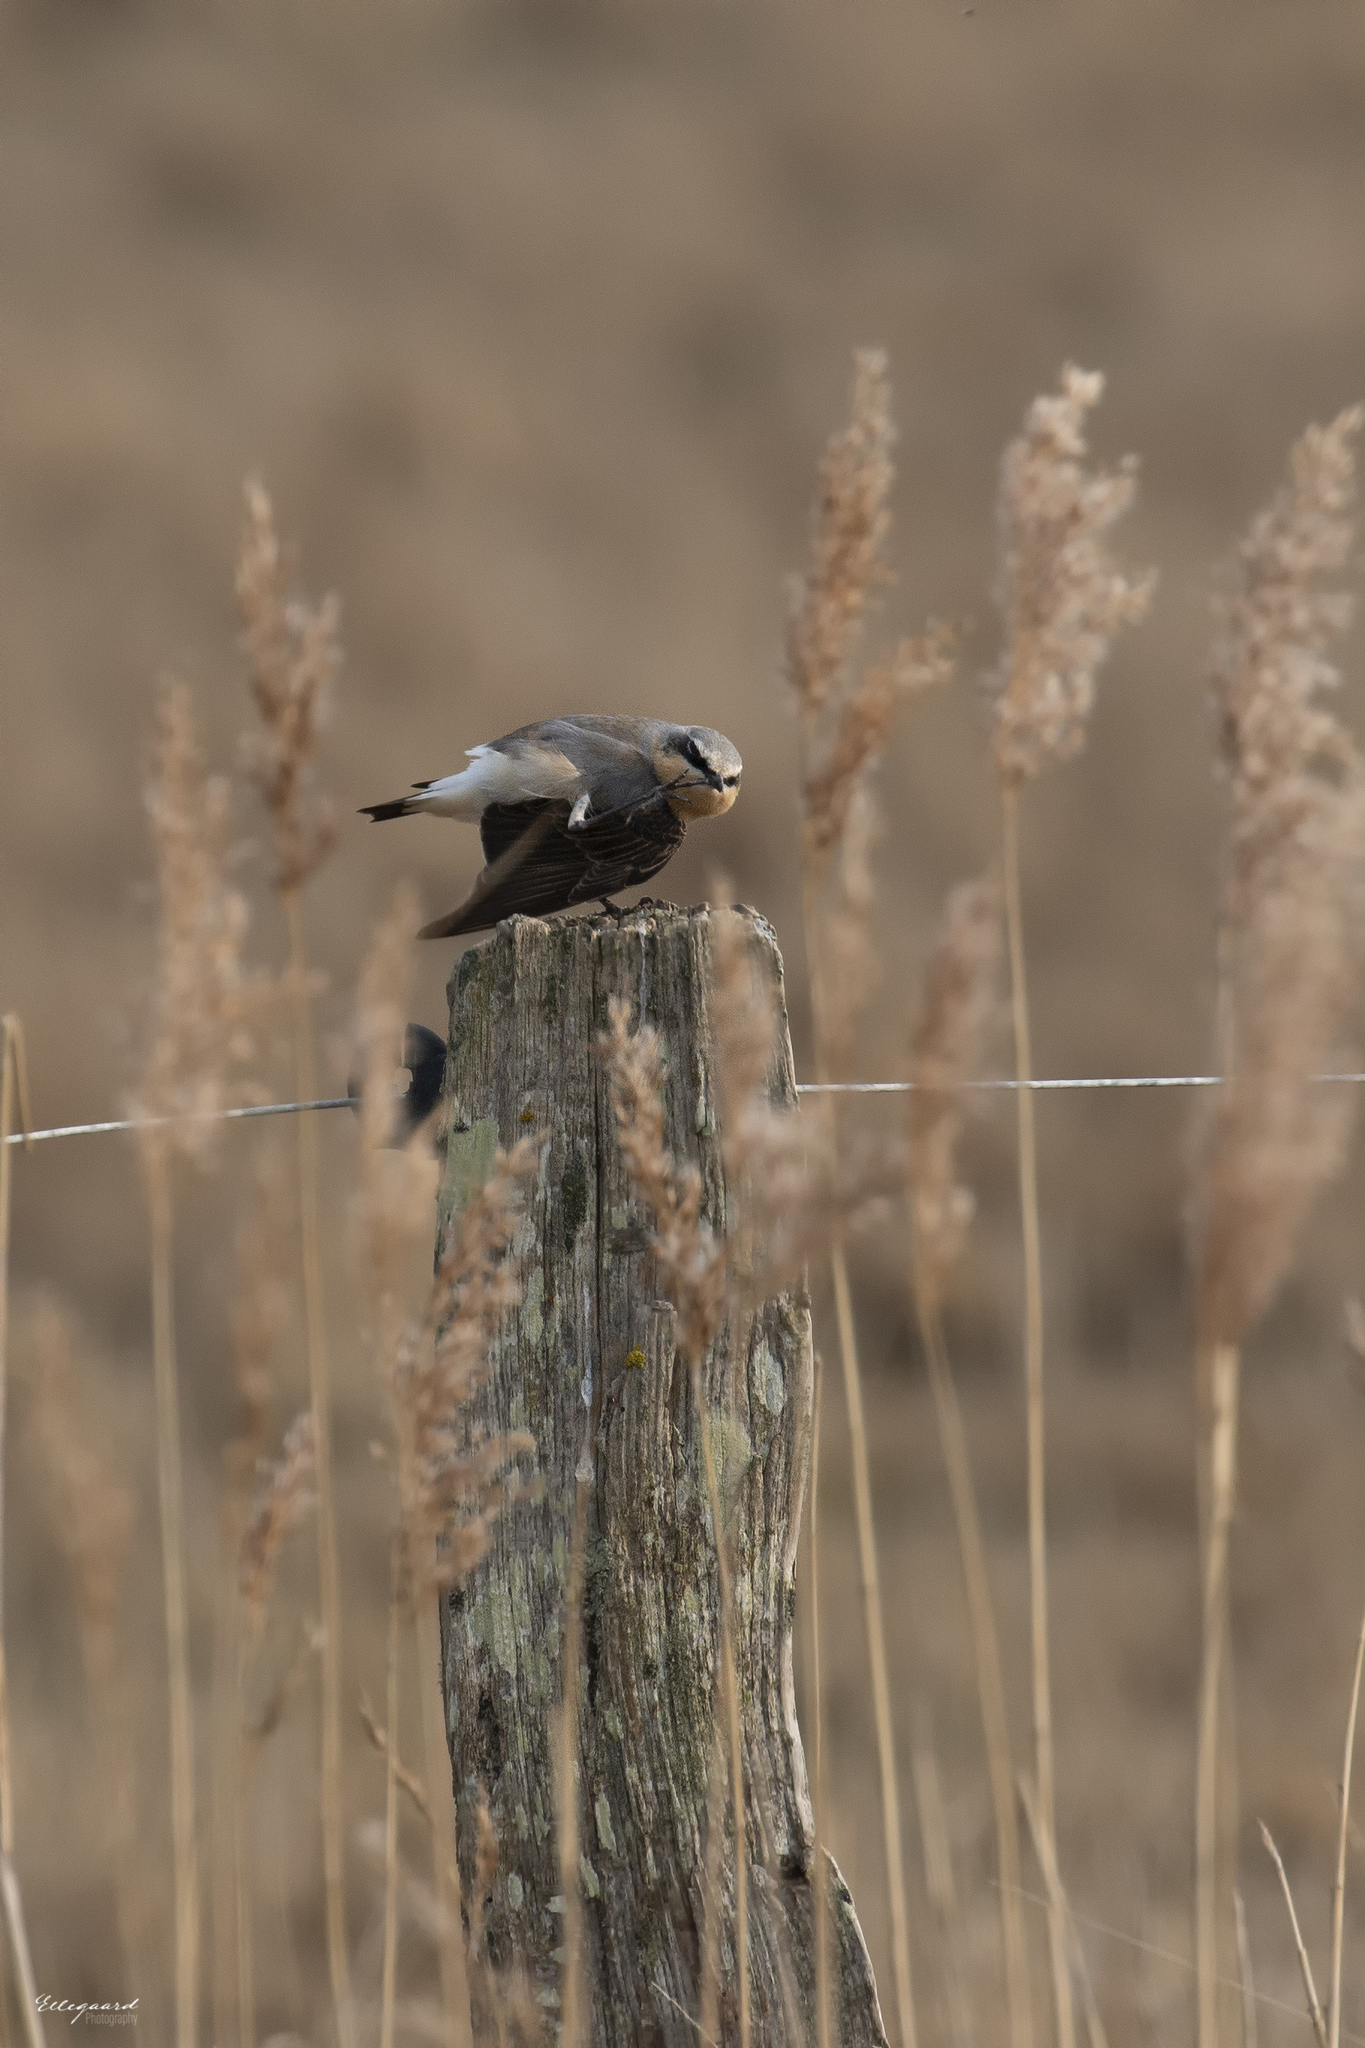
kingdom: Animalia
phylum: Chordata
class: Aves
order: Passeriformes
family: Muscicapidae
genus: Oenanthe
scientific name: Oenanthe oenanthe
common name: Northern wheatear
